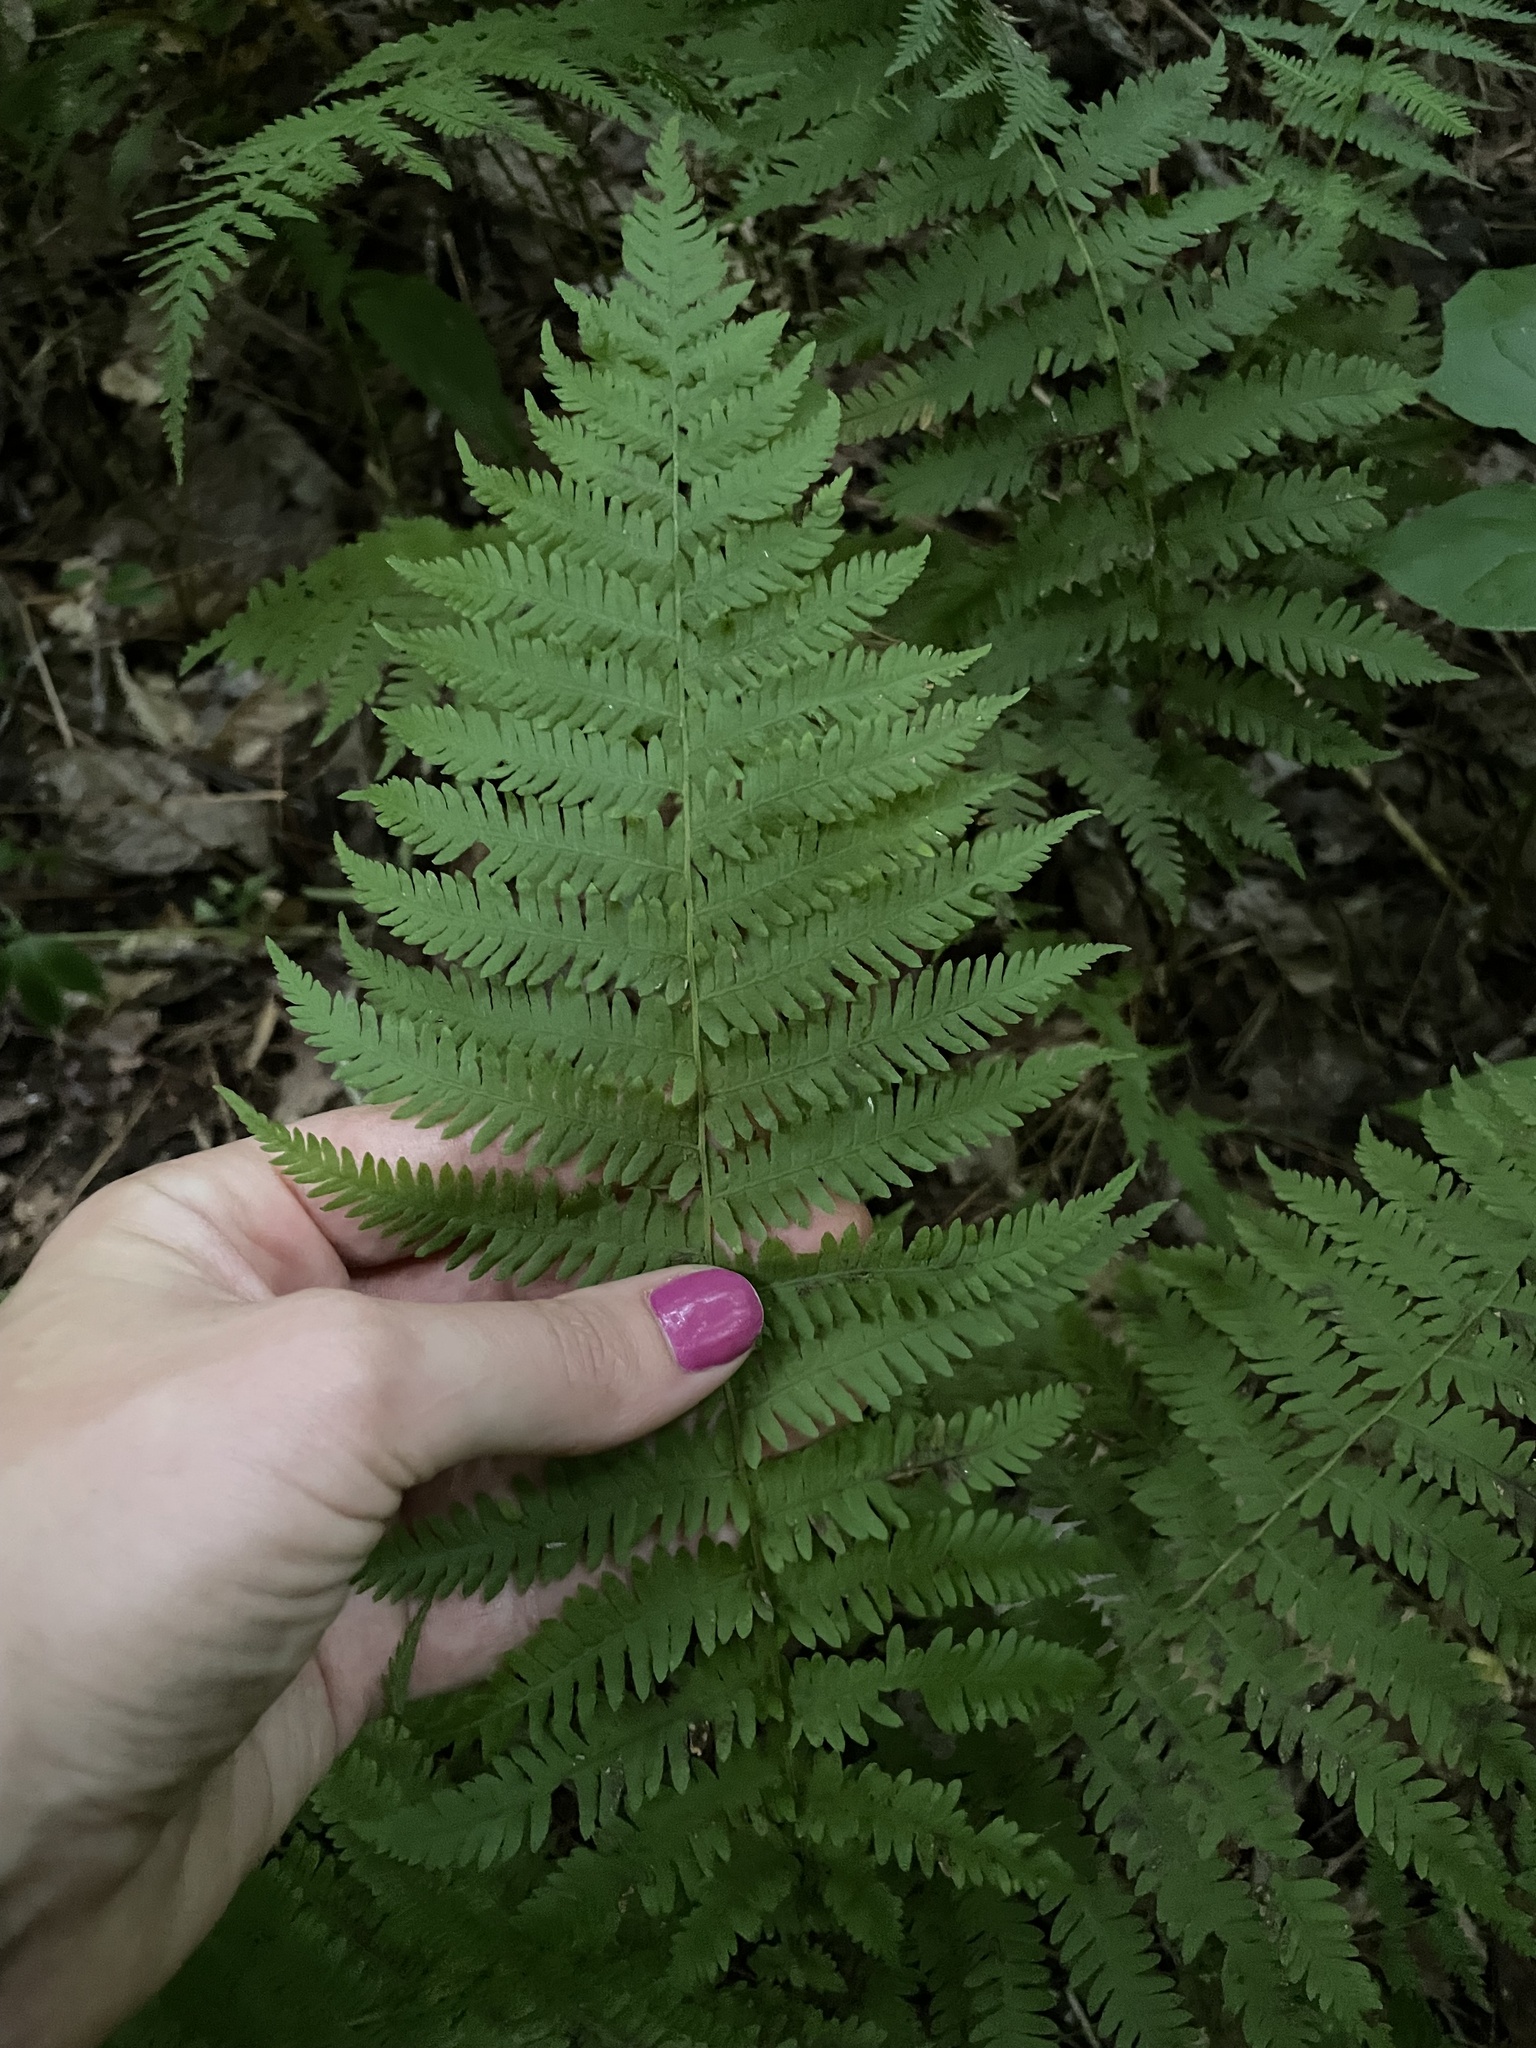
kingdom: Plantae
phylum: Tracheophyta
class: Polypodiopsida
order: Polypodiales
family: Thelypteridaceae
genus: Amauropelta
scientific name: Amauropelta noveboracensis
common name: New york fern
